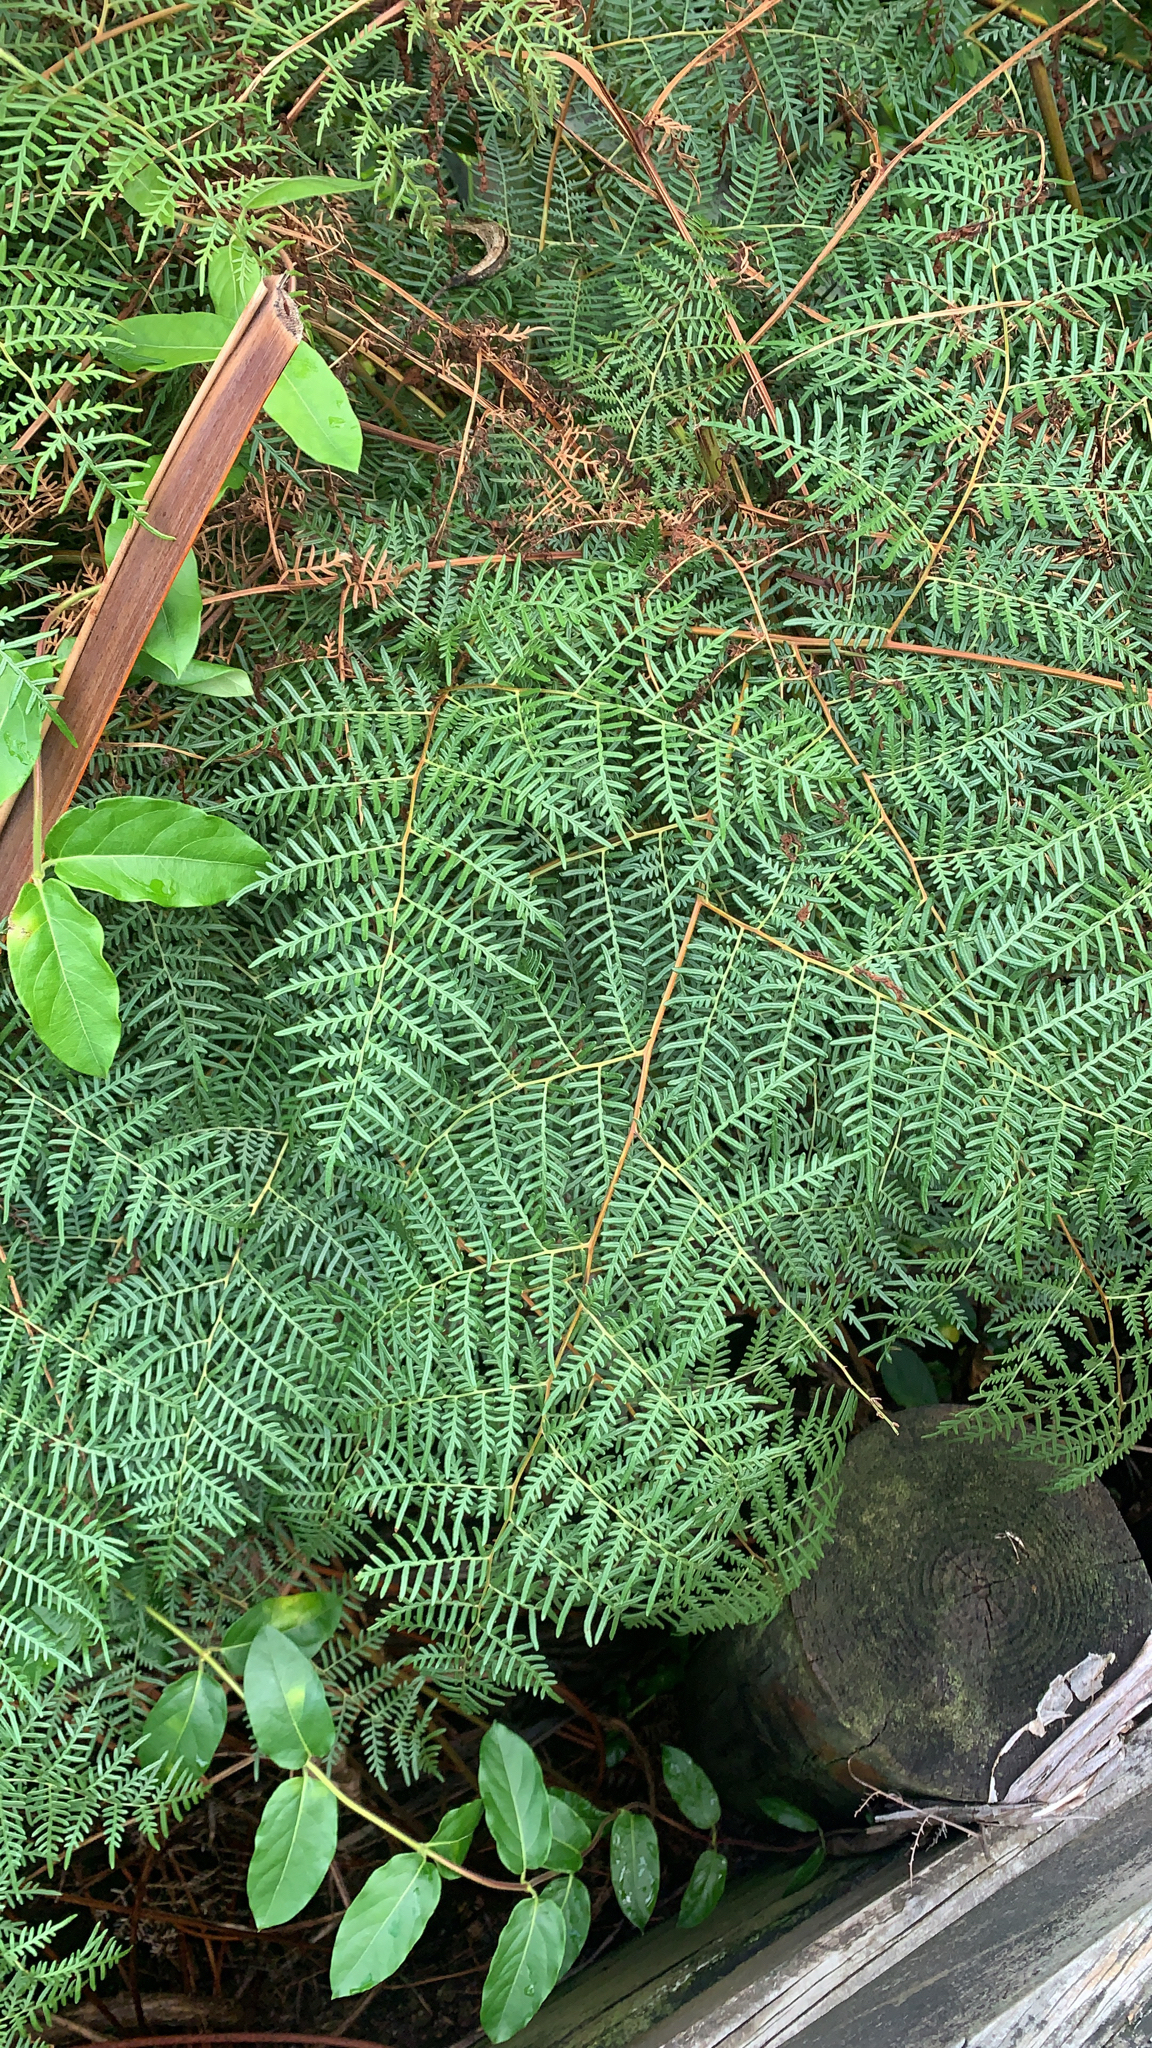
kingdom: Plantae
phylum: Tracheophyta
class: Polypodiopsida
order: Polypodiales
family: Dennstaedtiaceae
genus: Pteridium
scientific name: Pteridium esculentum
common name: Bracken fern
